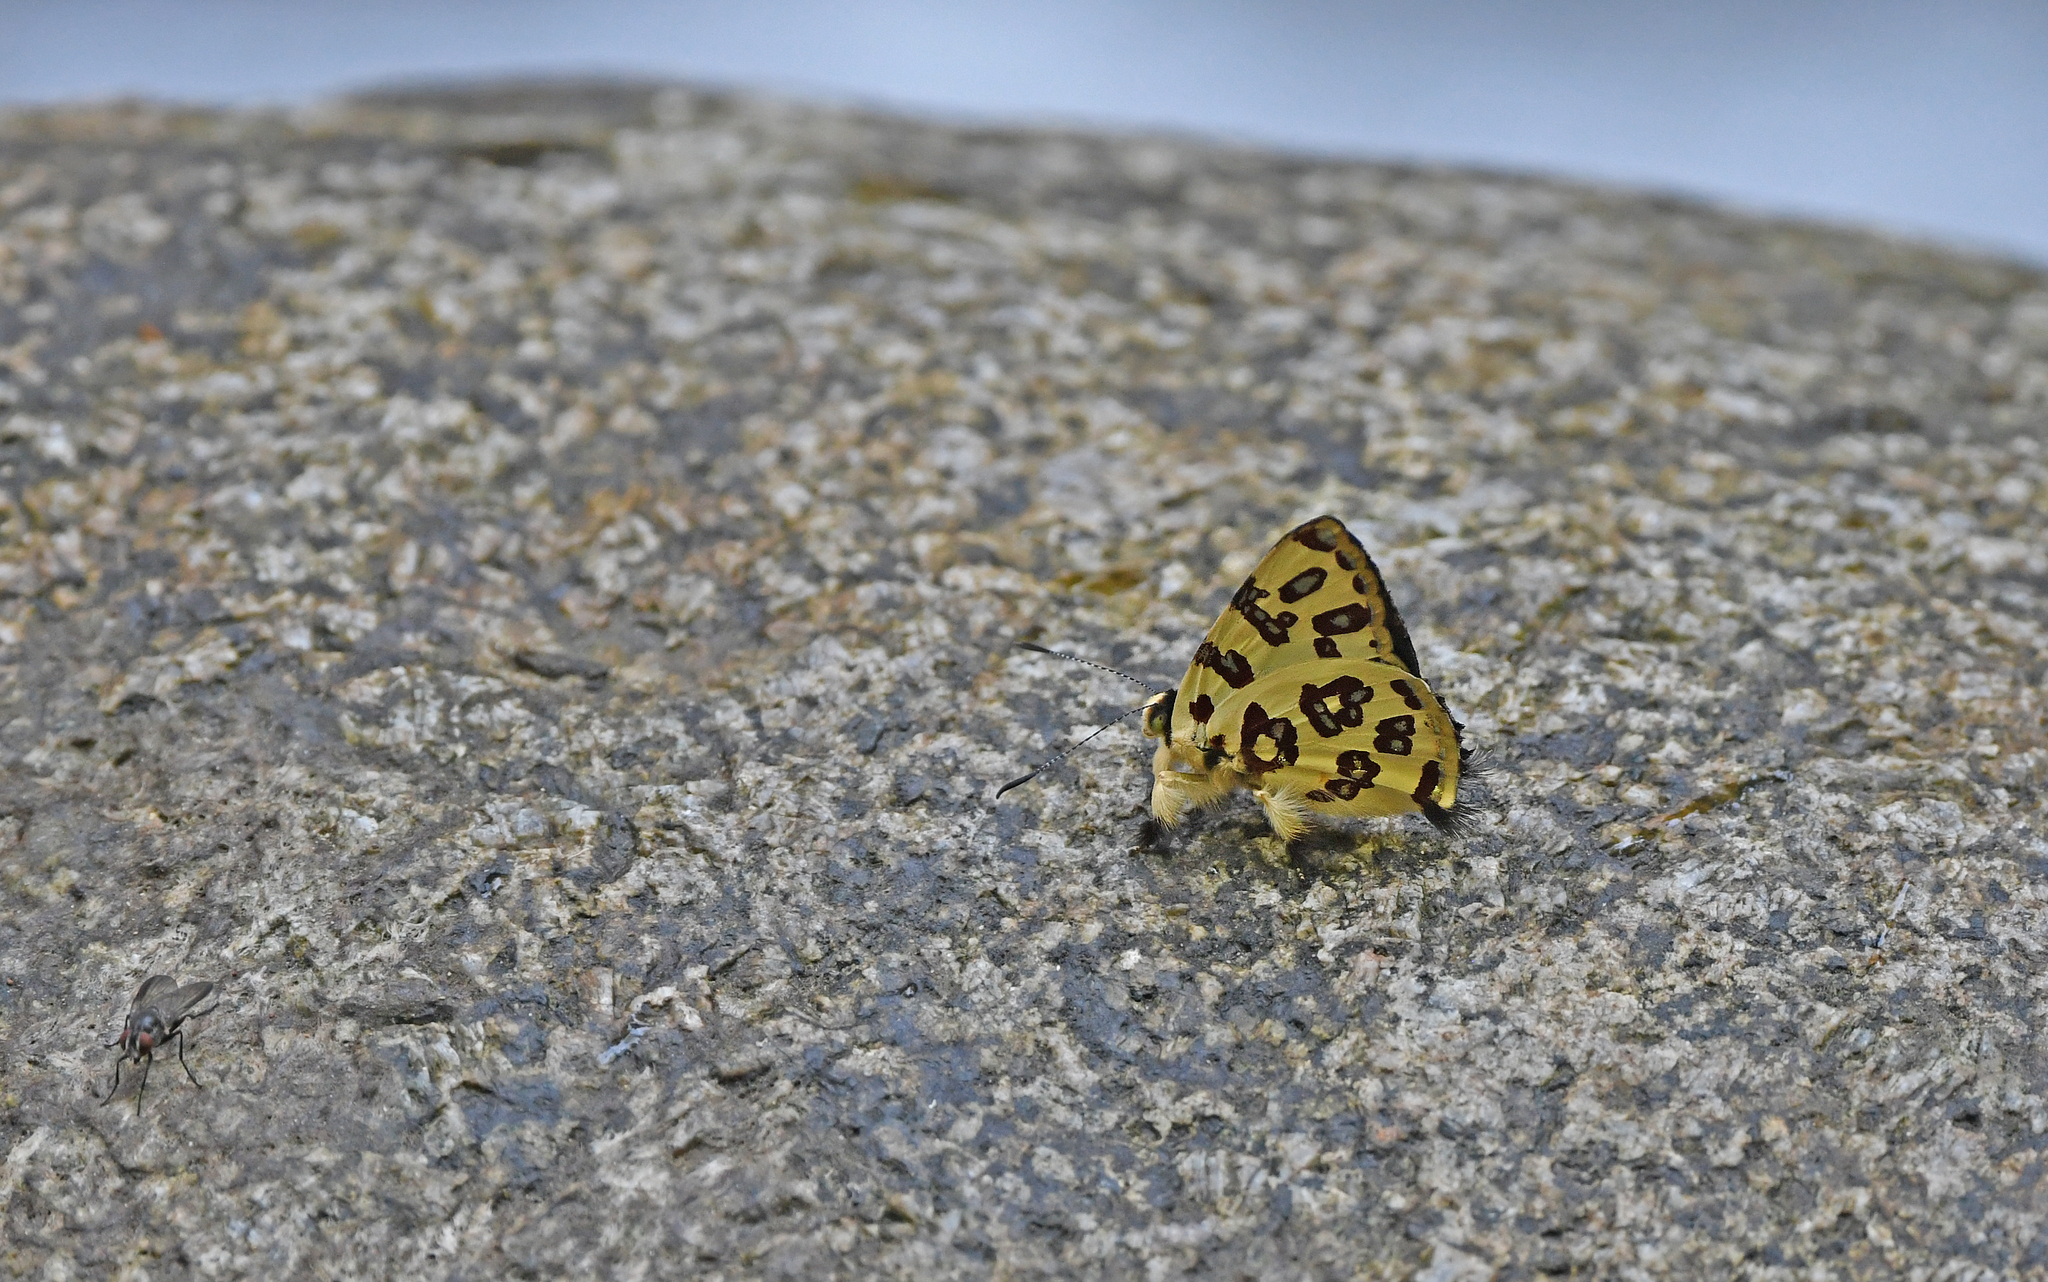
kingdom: Animalia
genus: Anteros
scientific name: Anteros bracteatus
